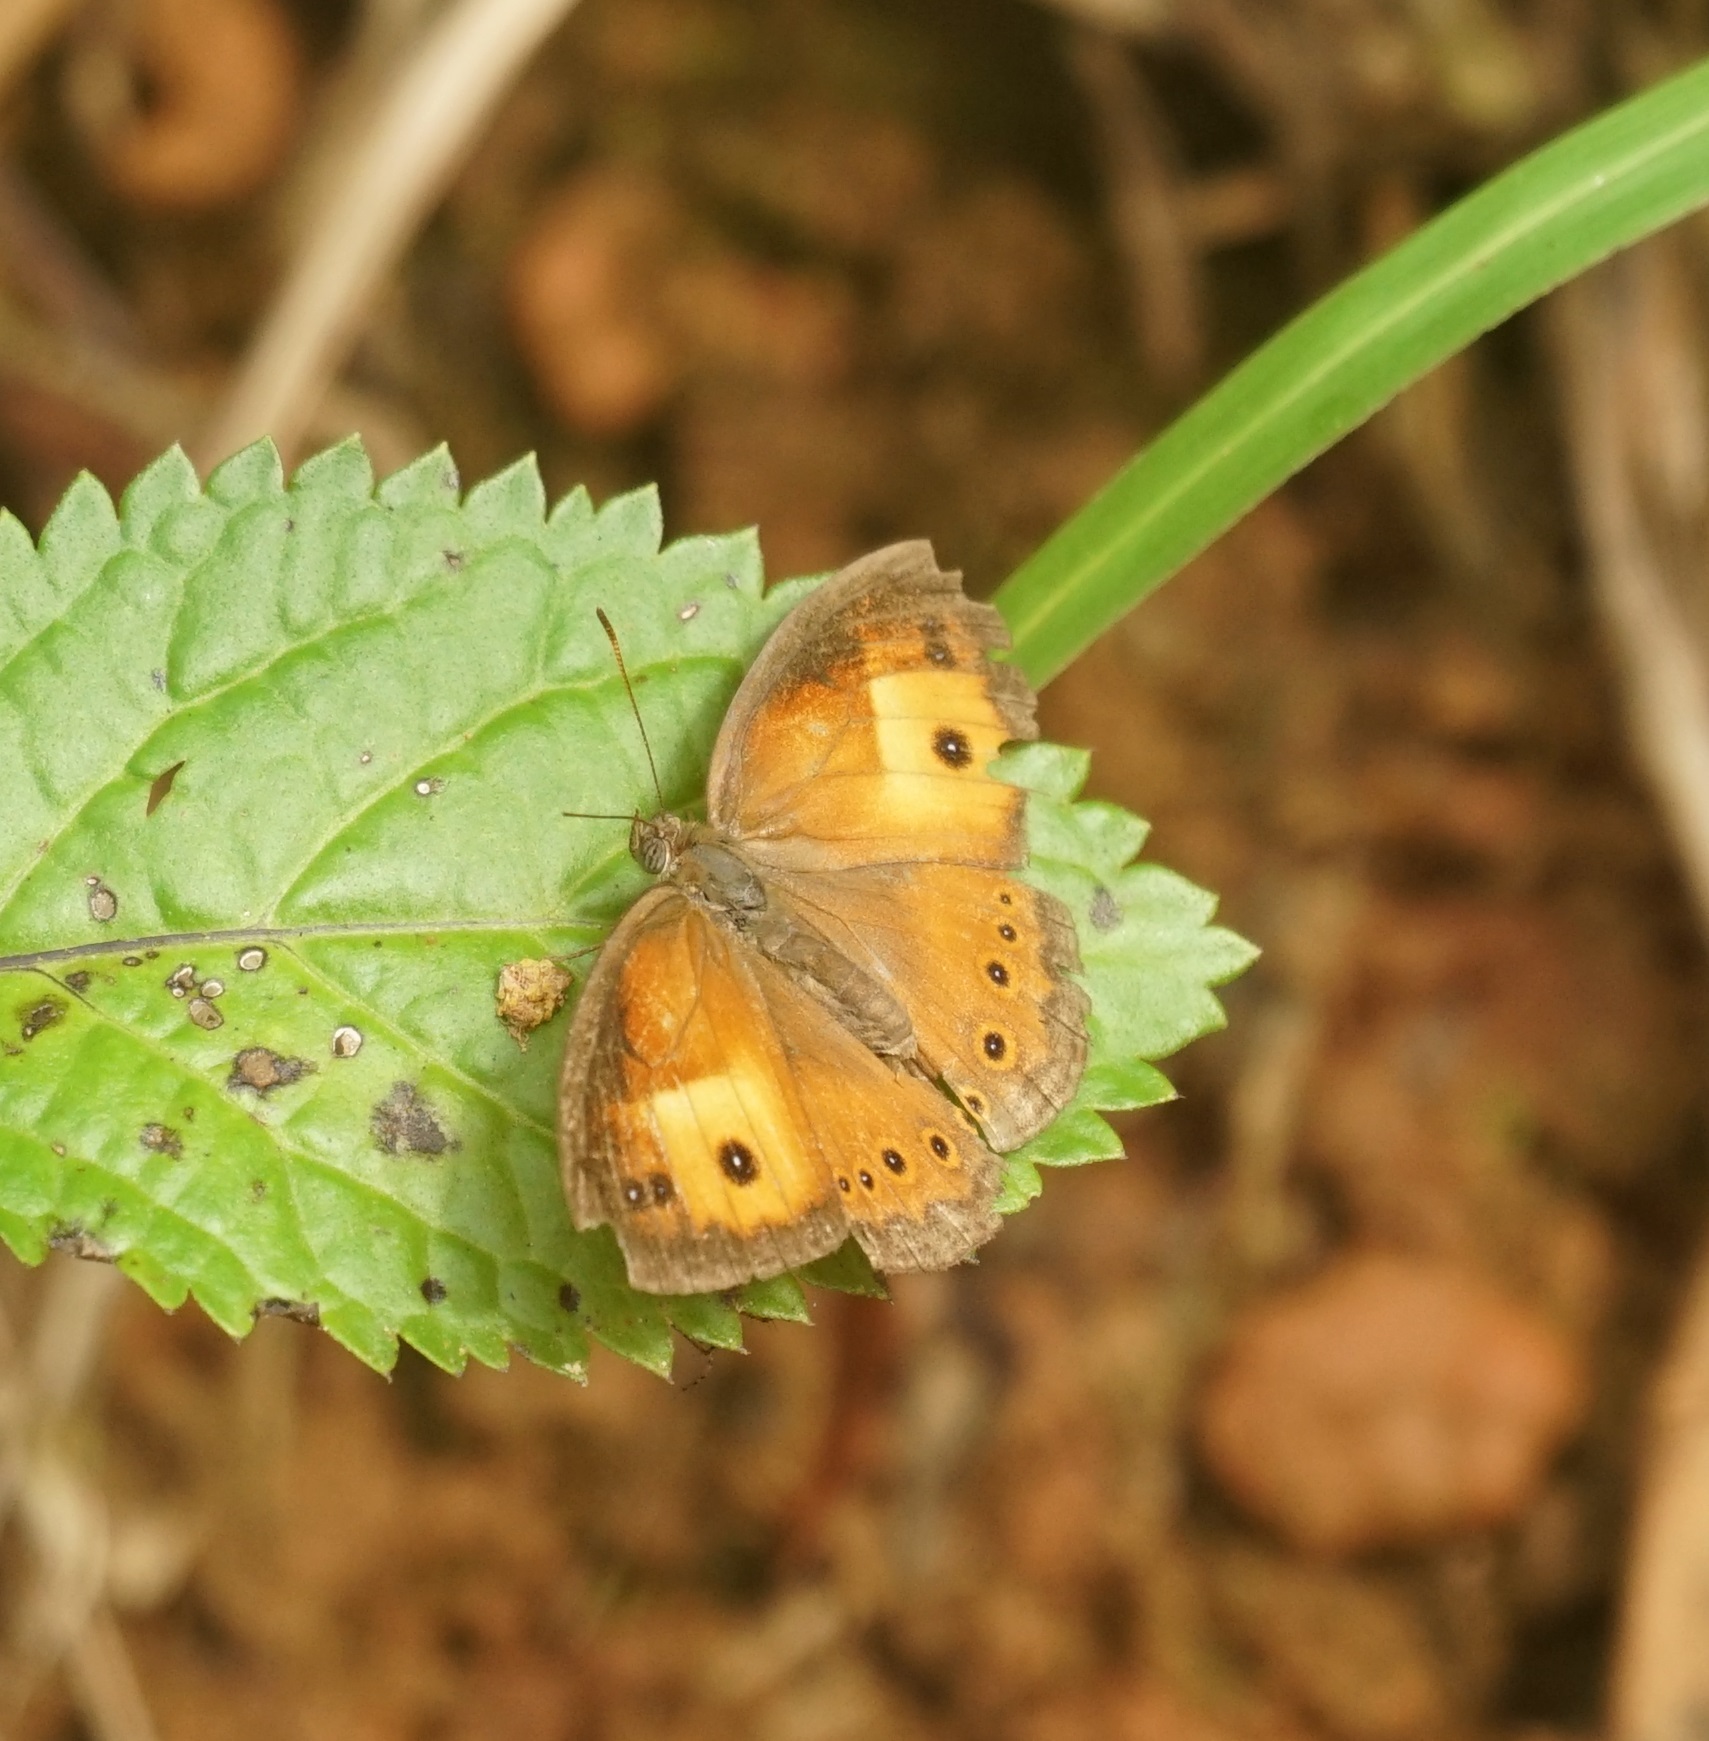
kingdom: Animalia
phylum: Arthropoda
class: Insecta
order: Lepidoptera
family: Nymphalidae
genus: Mycalesis
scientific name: Mycalesis terminus
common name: Orange bushbrown
